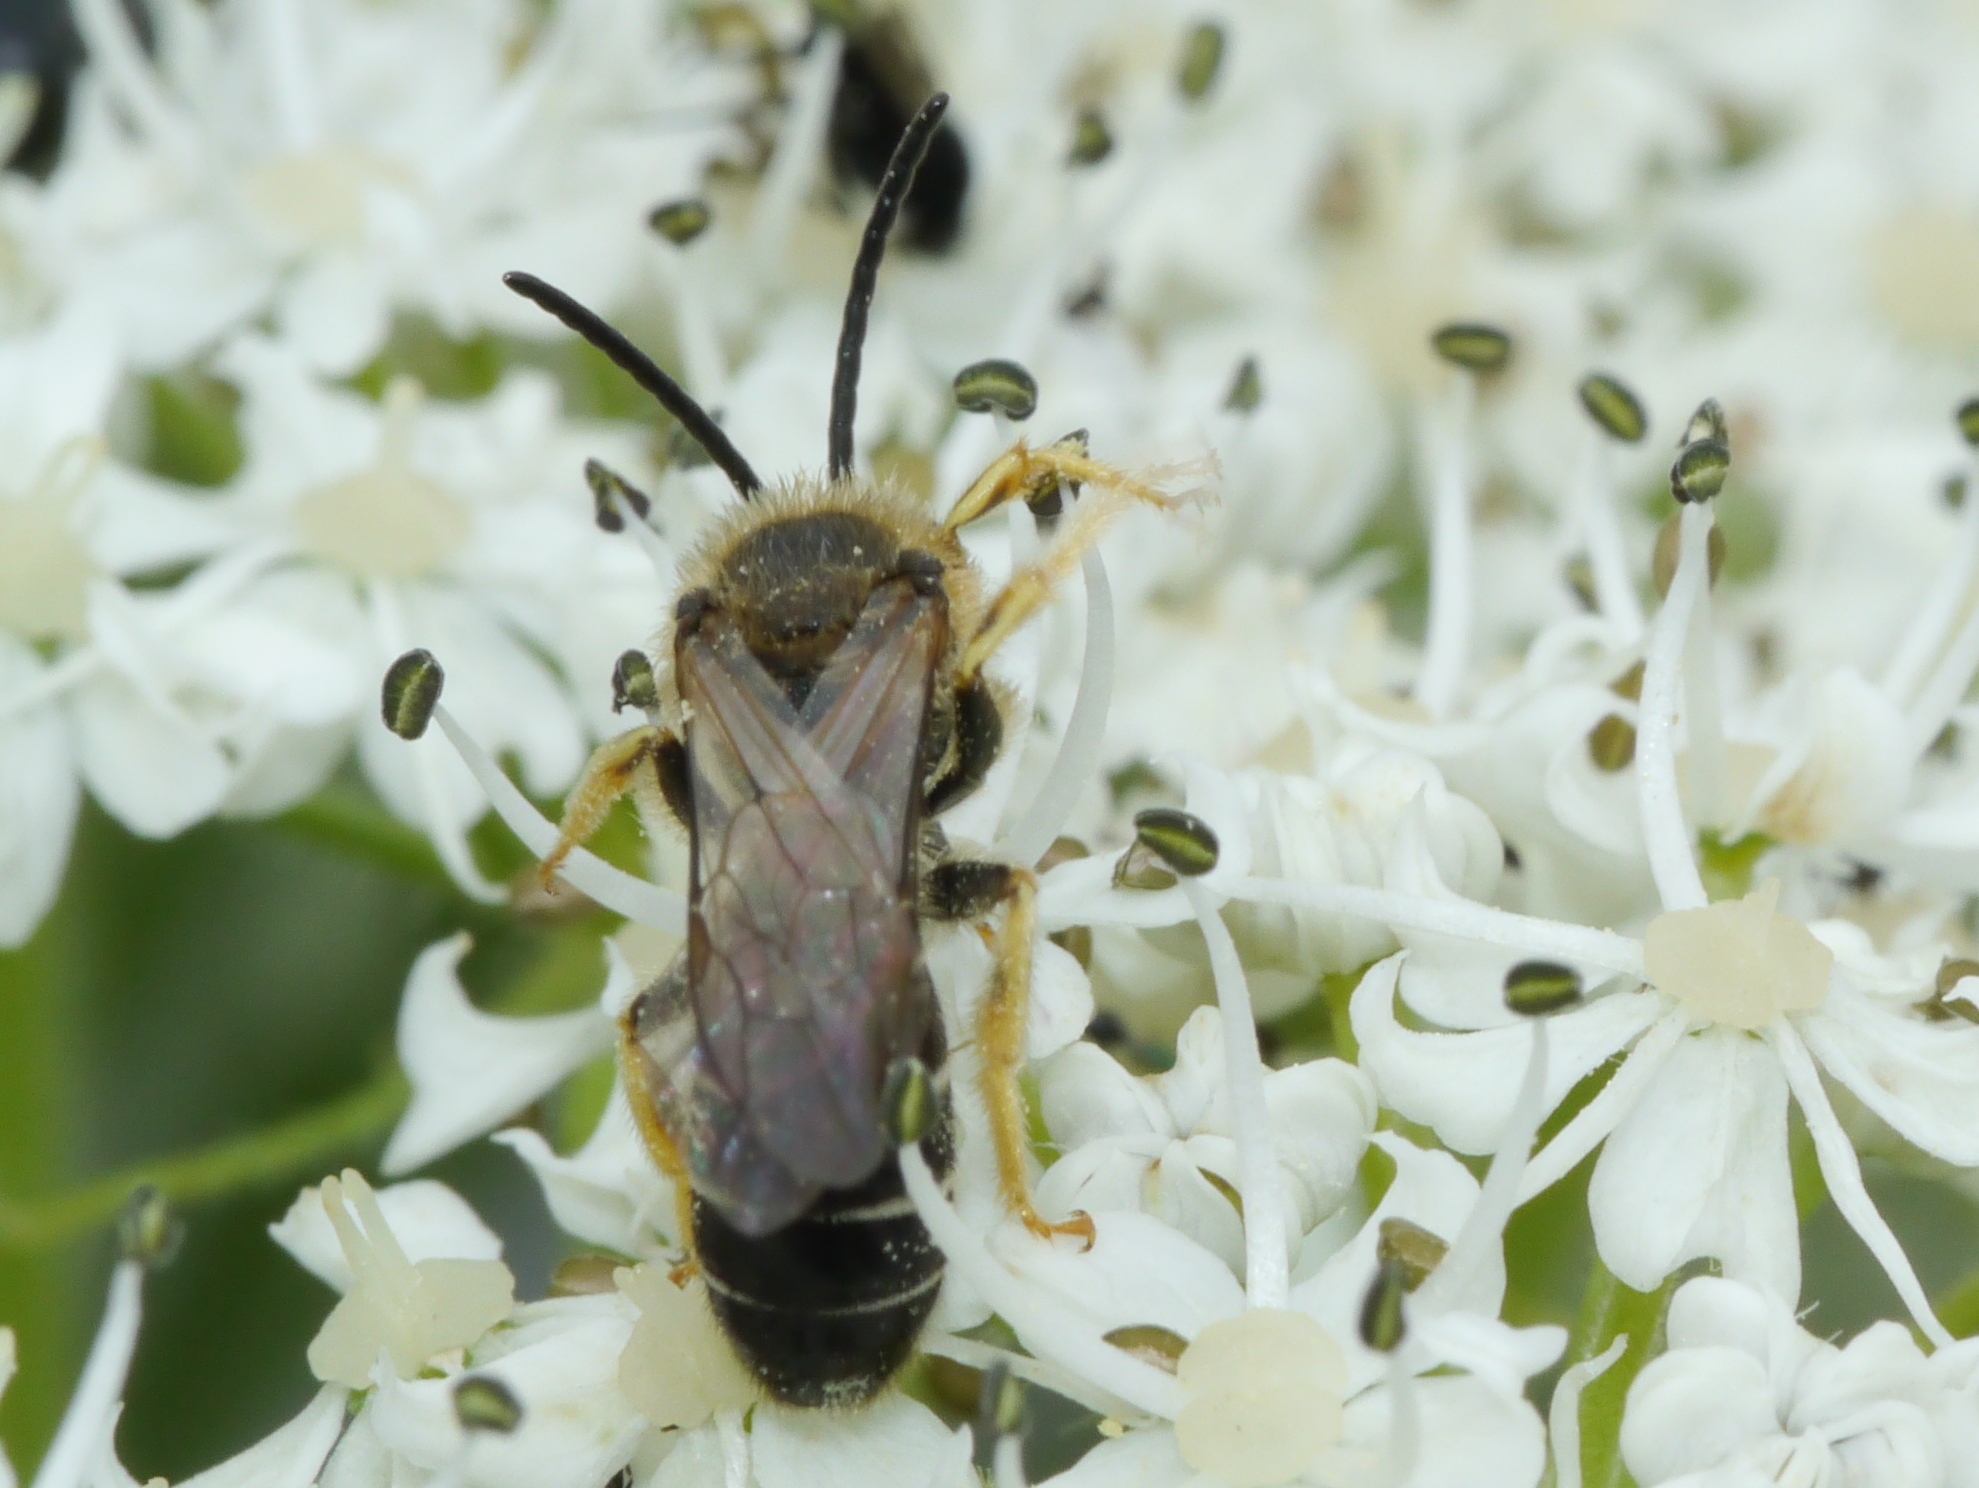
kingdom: Animalia
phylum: Arthropoda
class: Insecta
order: Hymenoptera
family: Halictidae
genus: Halictus
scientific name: Halictus rubicundus
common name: Orange-legged furrow bee
